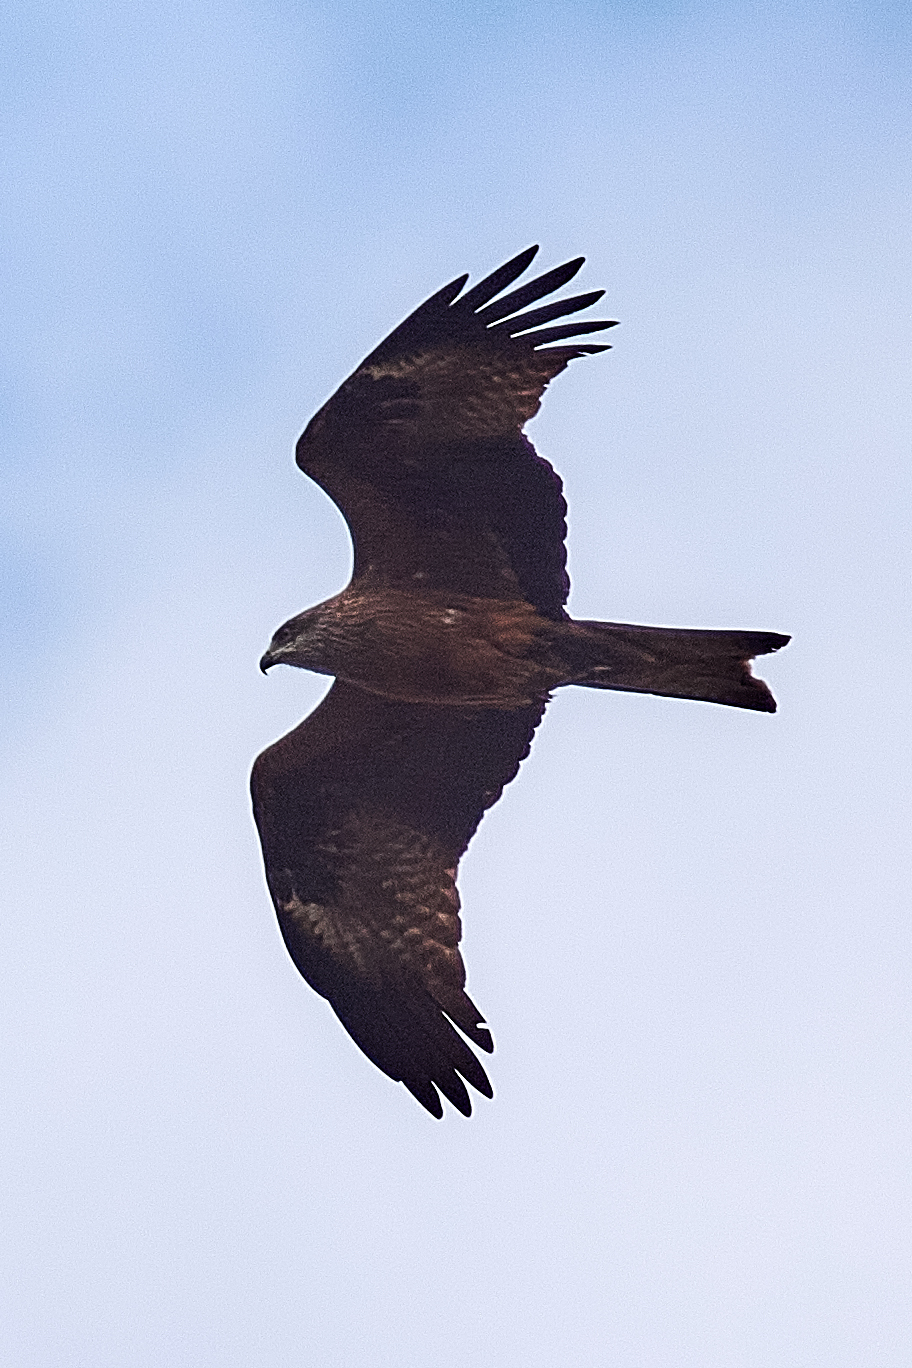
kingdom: Animalia
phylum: Chordata
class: Aves
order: Accipitriformes
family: Accipitridae
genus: Milvus
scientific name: Milvus migrans
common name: Black kite
